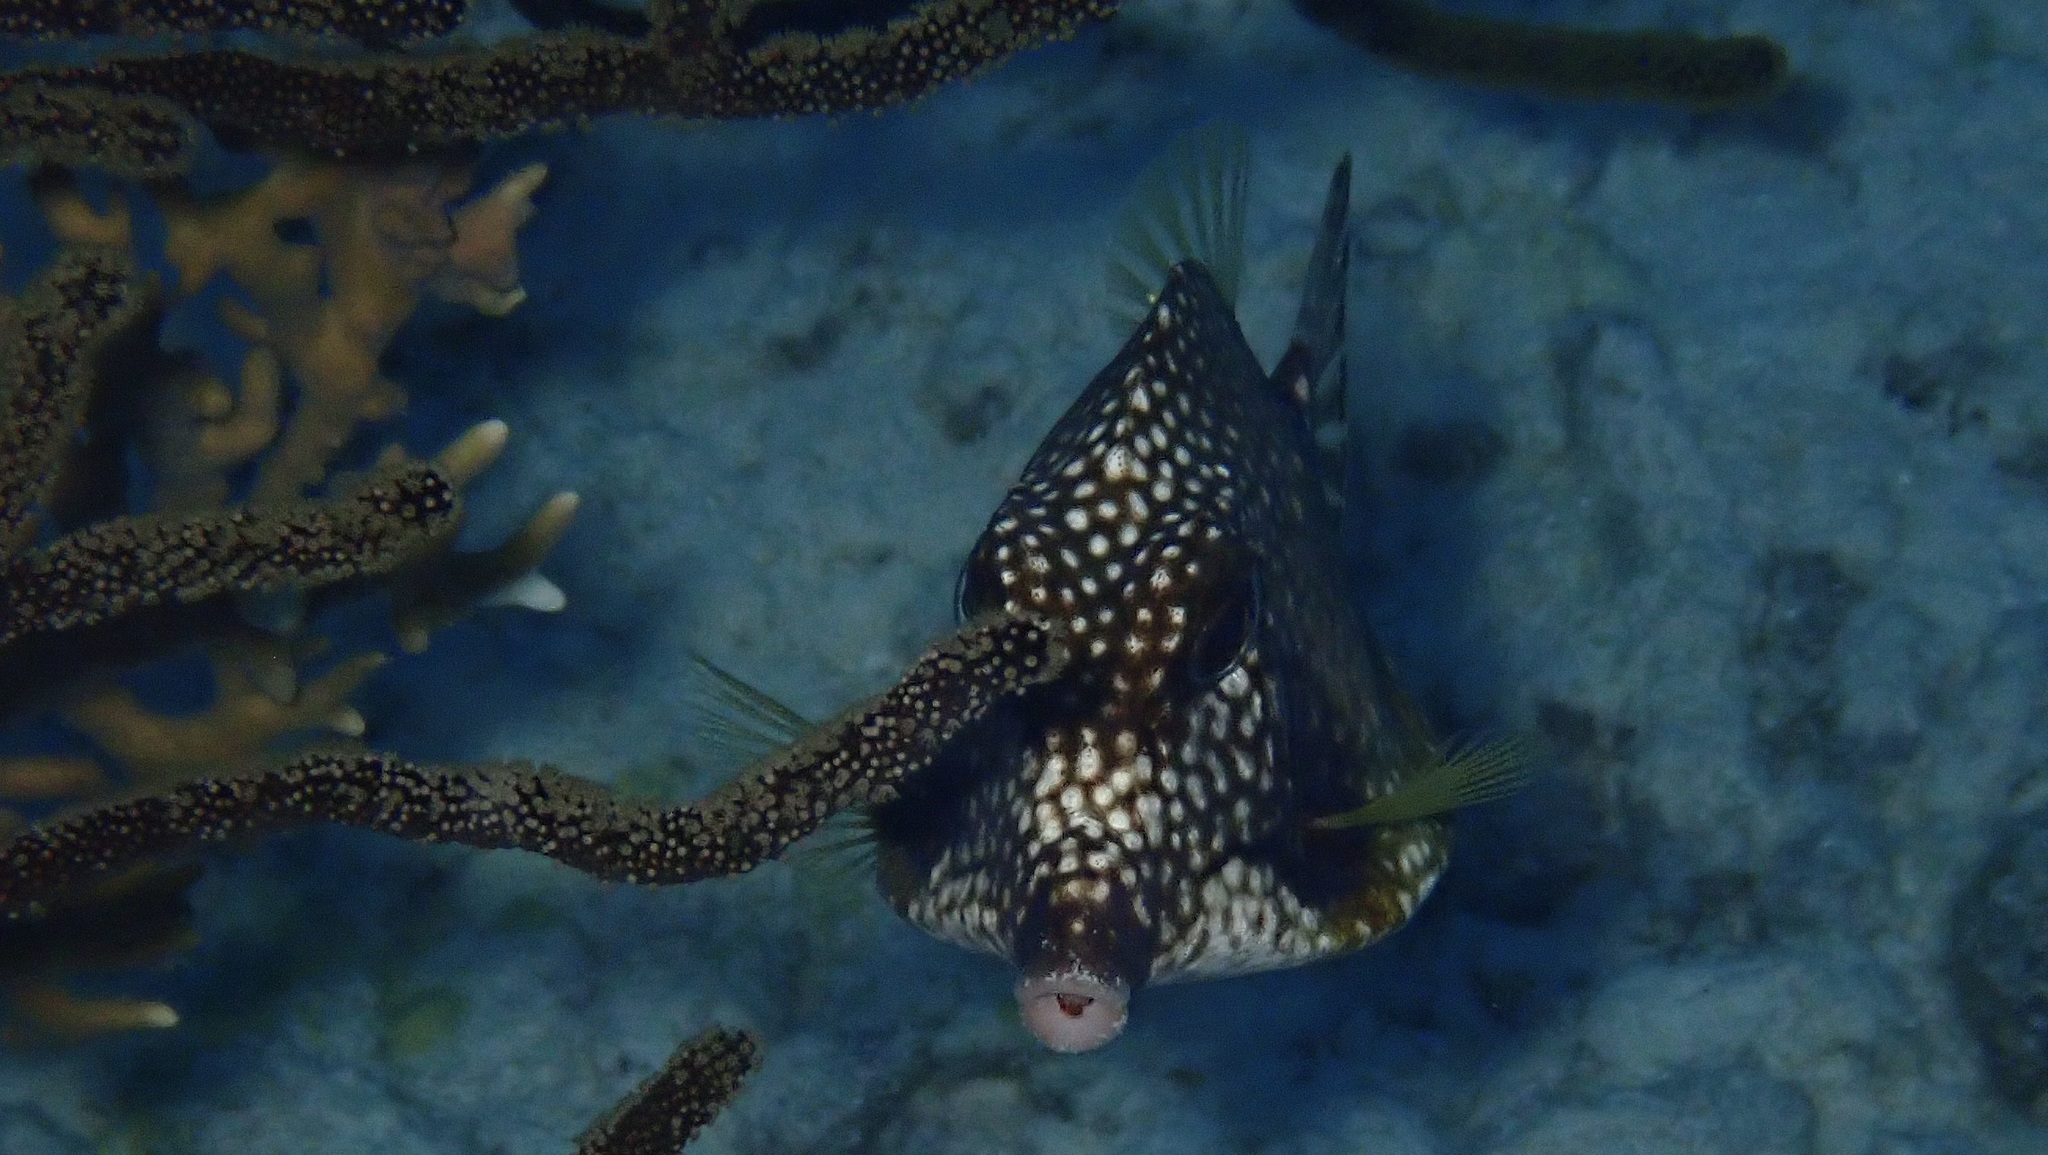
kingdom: Animalia
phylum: Chordata
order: Tetraodontiformes
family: Ostraciidae
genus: Lactophrys
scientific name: Lactophrys triqueter
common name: Smooth trunkfish
